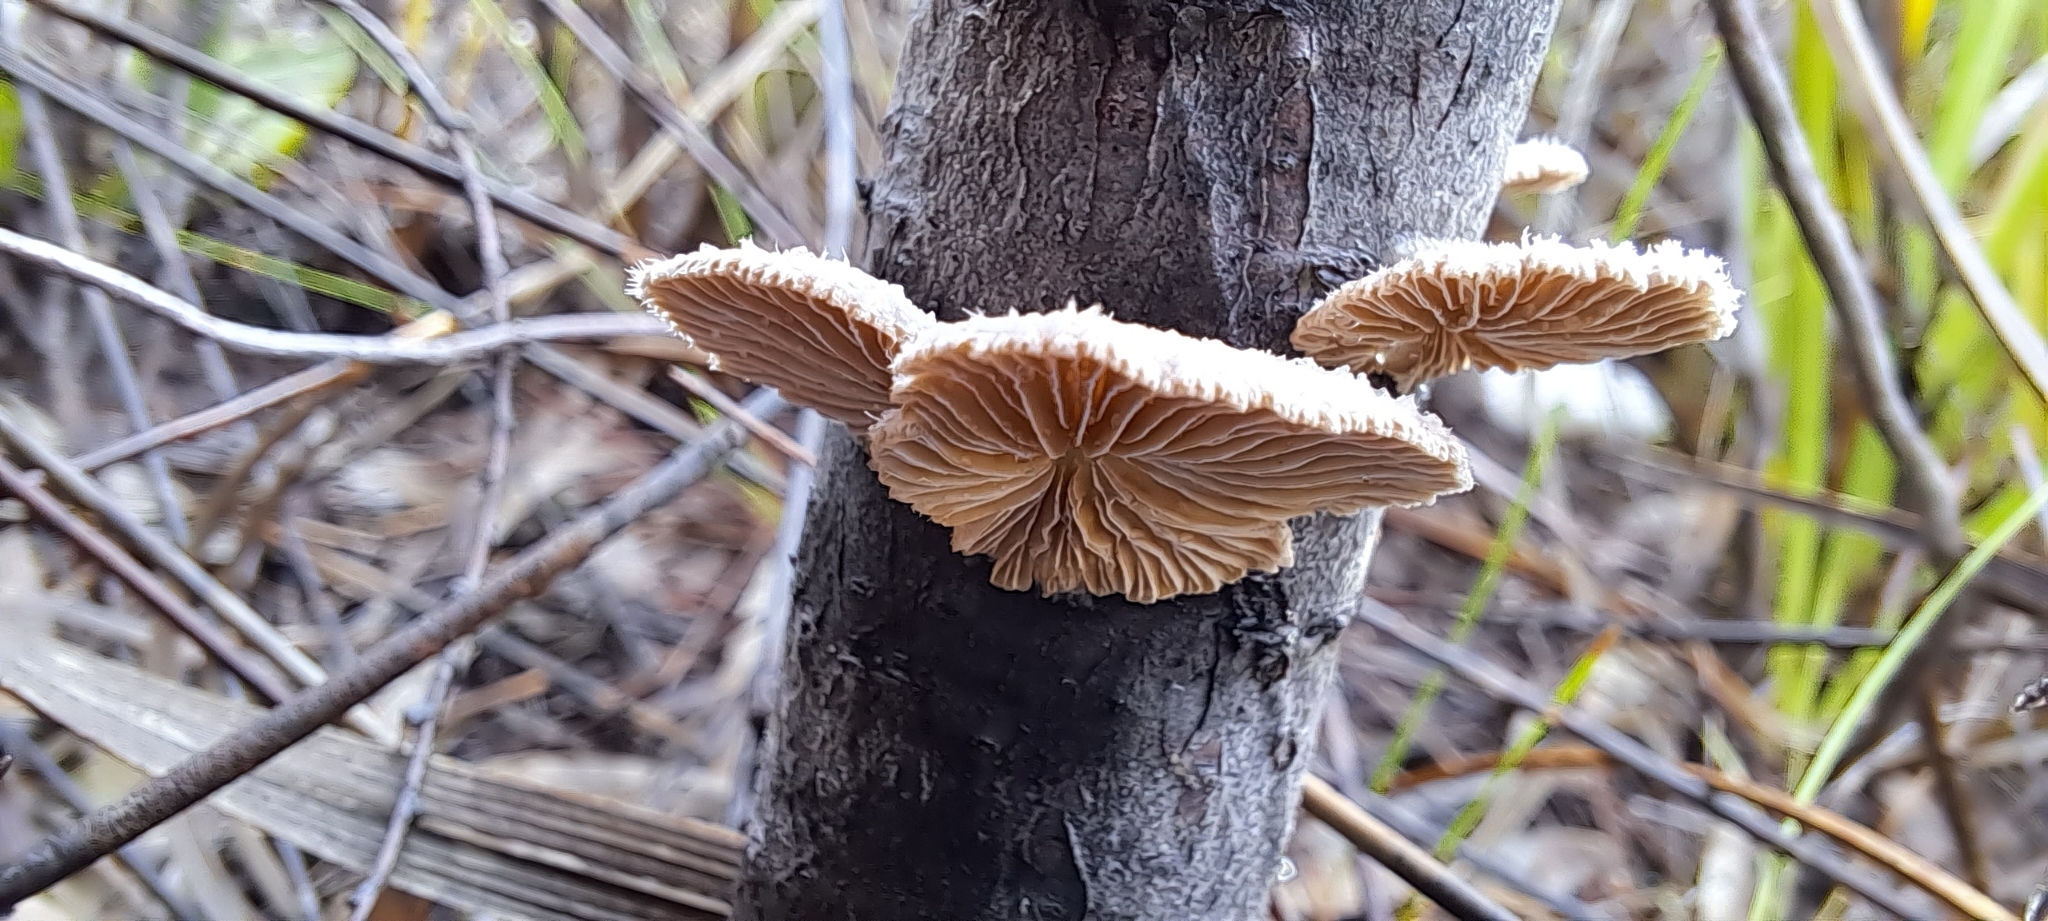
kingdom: Fungi
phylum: Basidiomycota
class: Agaricomycetes
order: Agaricales
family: Schizophyllaceae
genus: Schizophyllum
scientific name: Schizophyllum commune
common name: Common porecrust
